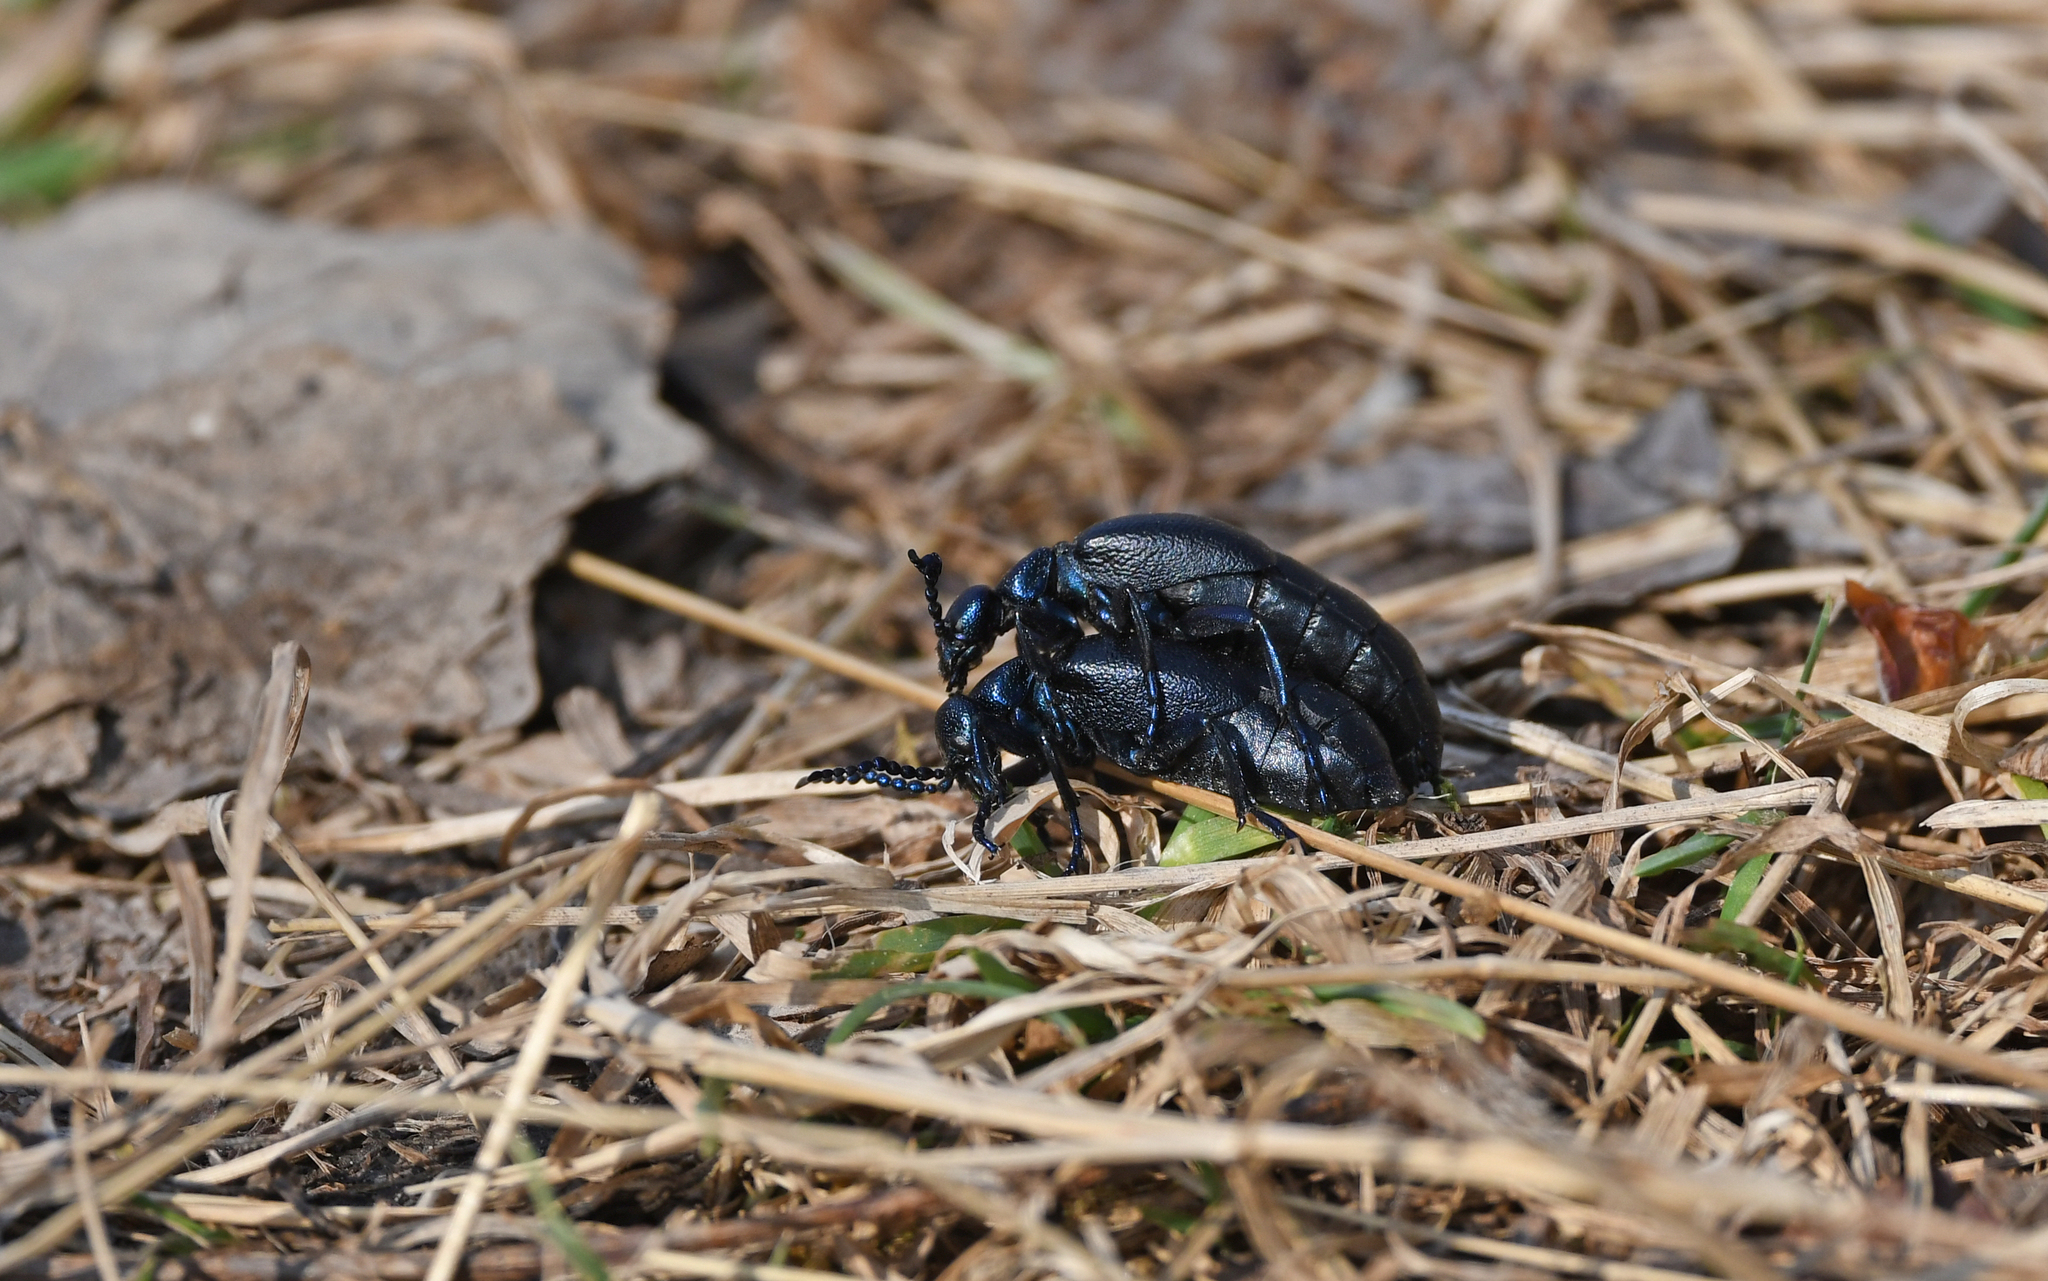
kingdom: Animalia
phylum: Arthropoda
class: Insecta
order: Coleoptera
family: Meloidae
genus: Meloe
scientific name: Meloe proscarabaeus
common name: Black oil-beetle
